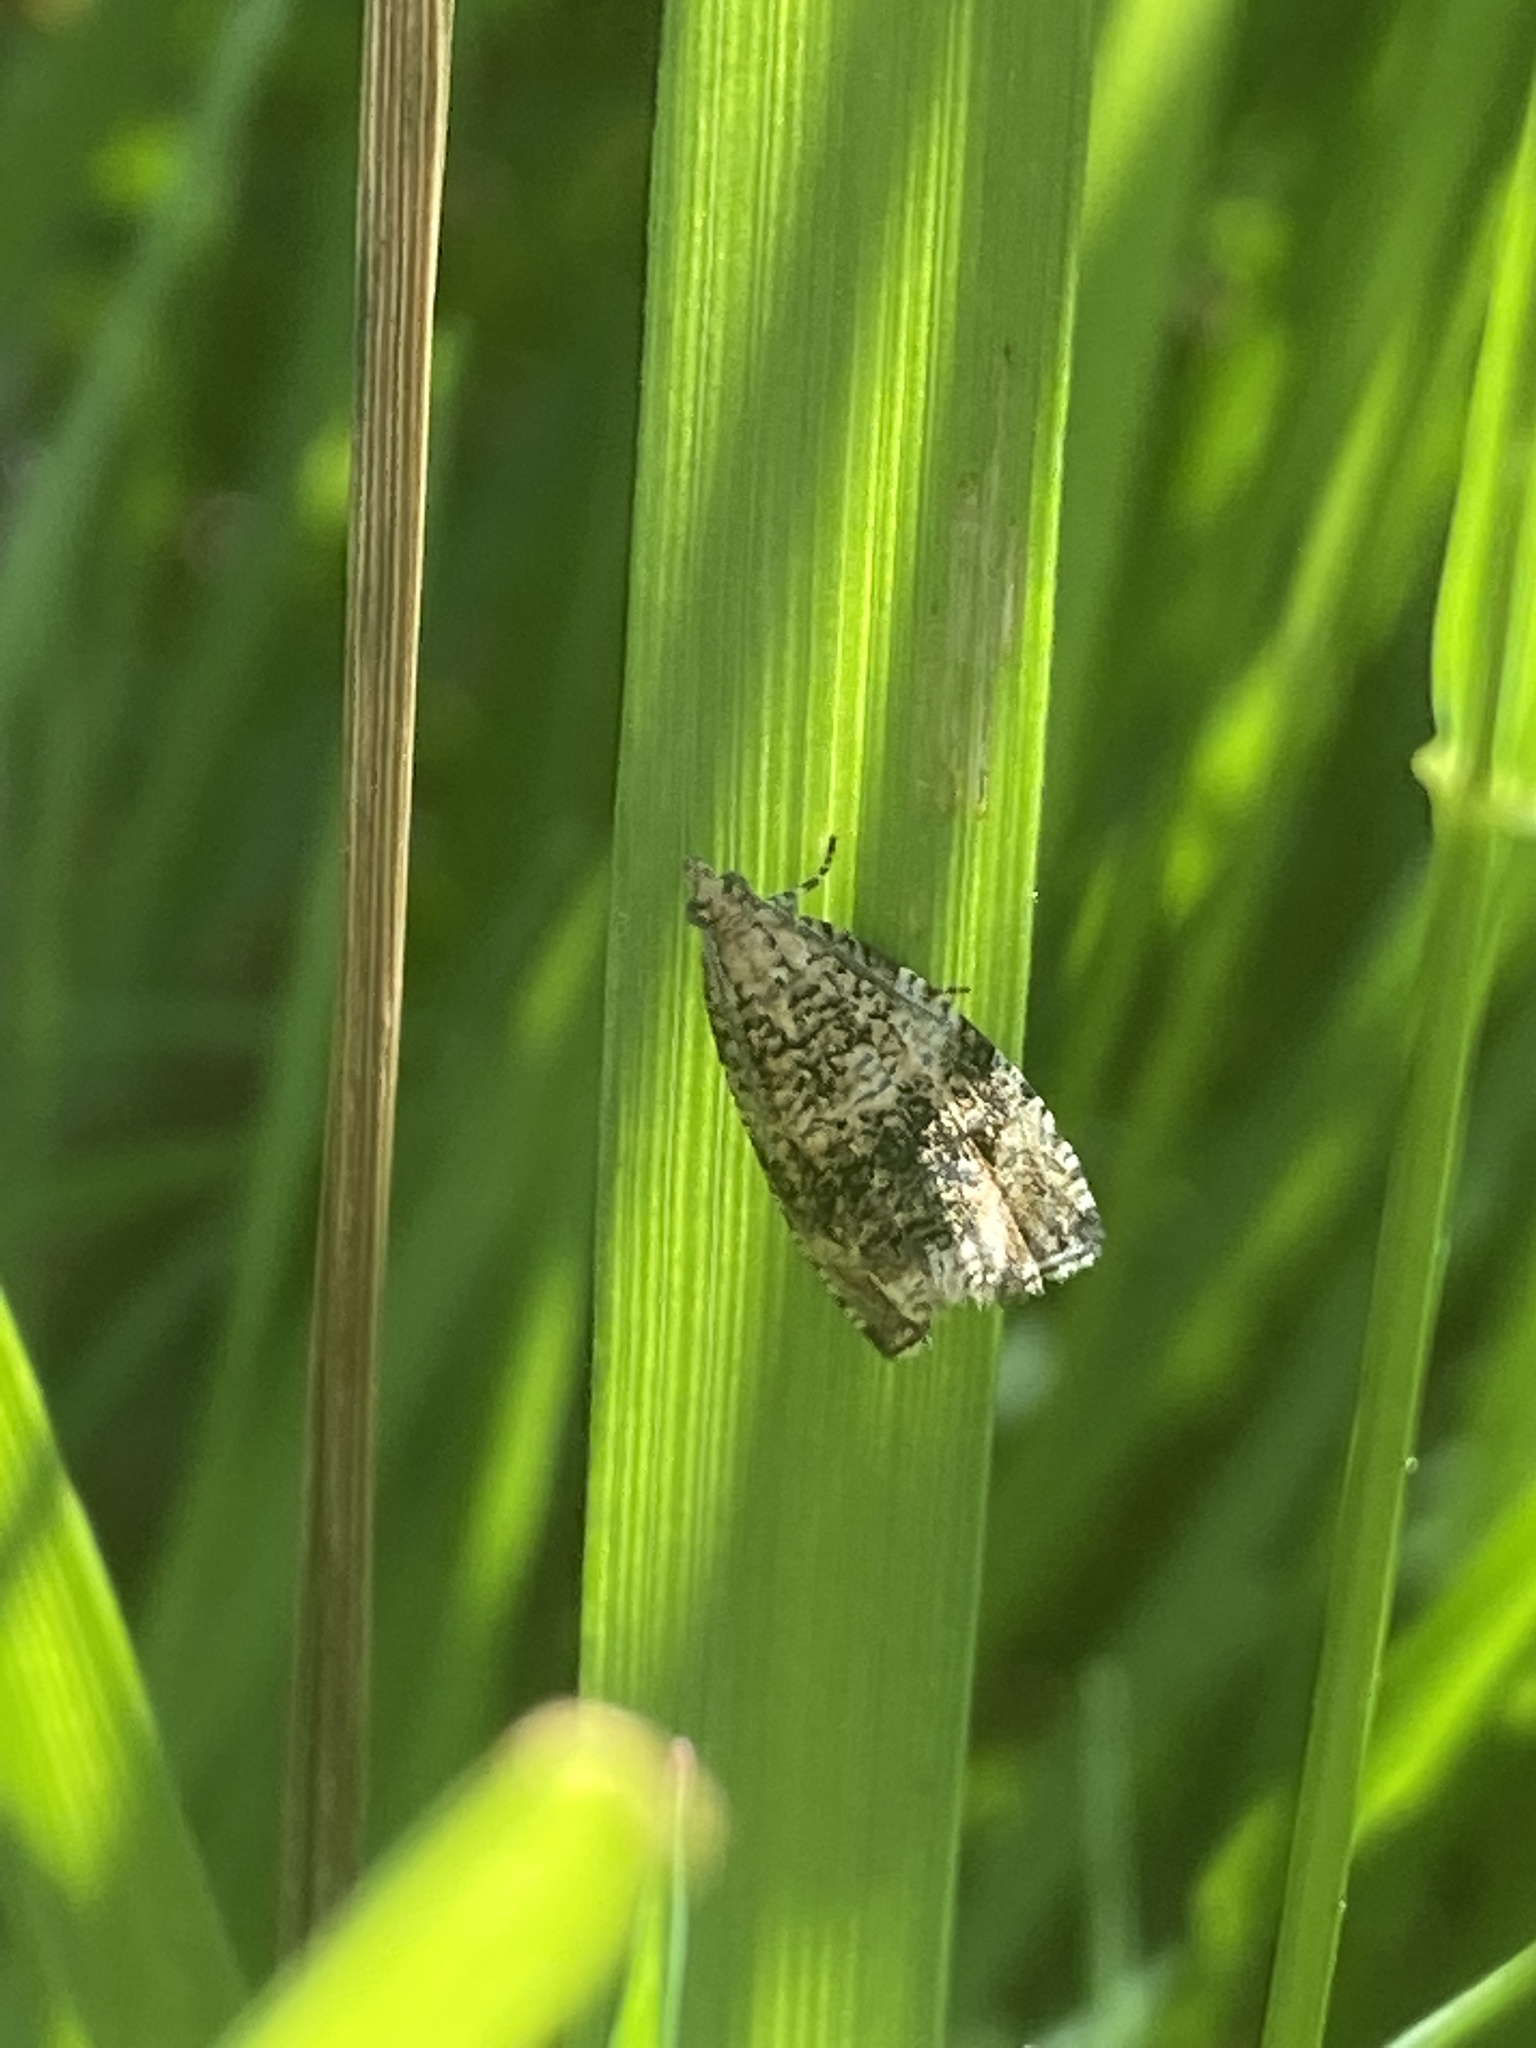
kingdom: Animalia
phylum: Arthropoda
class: Insecta
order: Lepidoptera
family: Tortricidae
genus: Syricoris
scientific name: Syricoris lacunana
